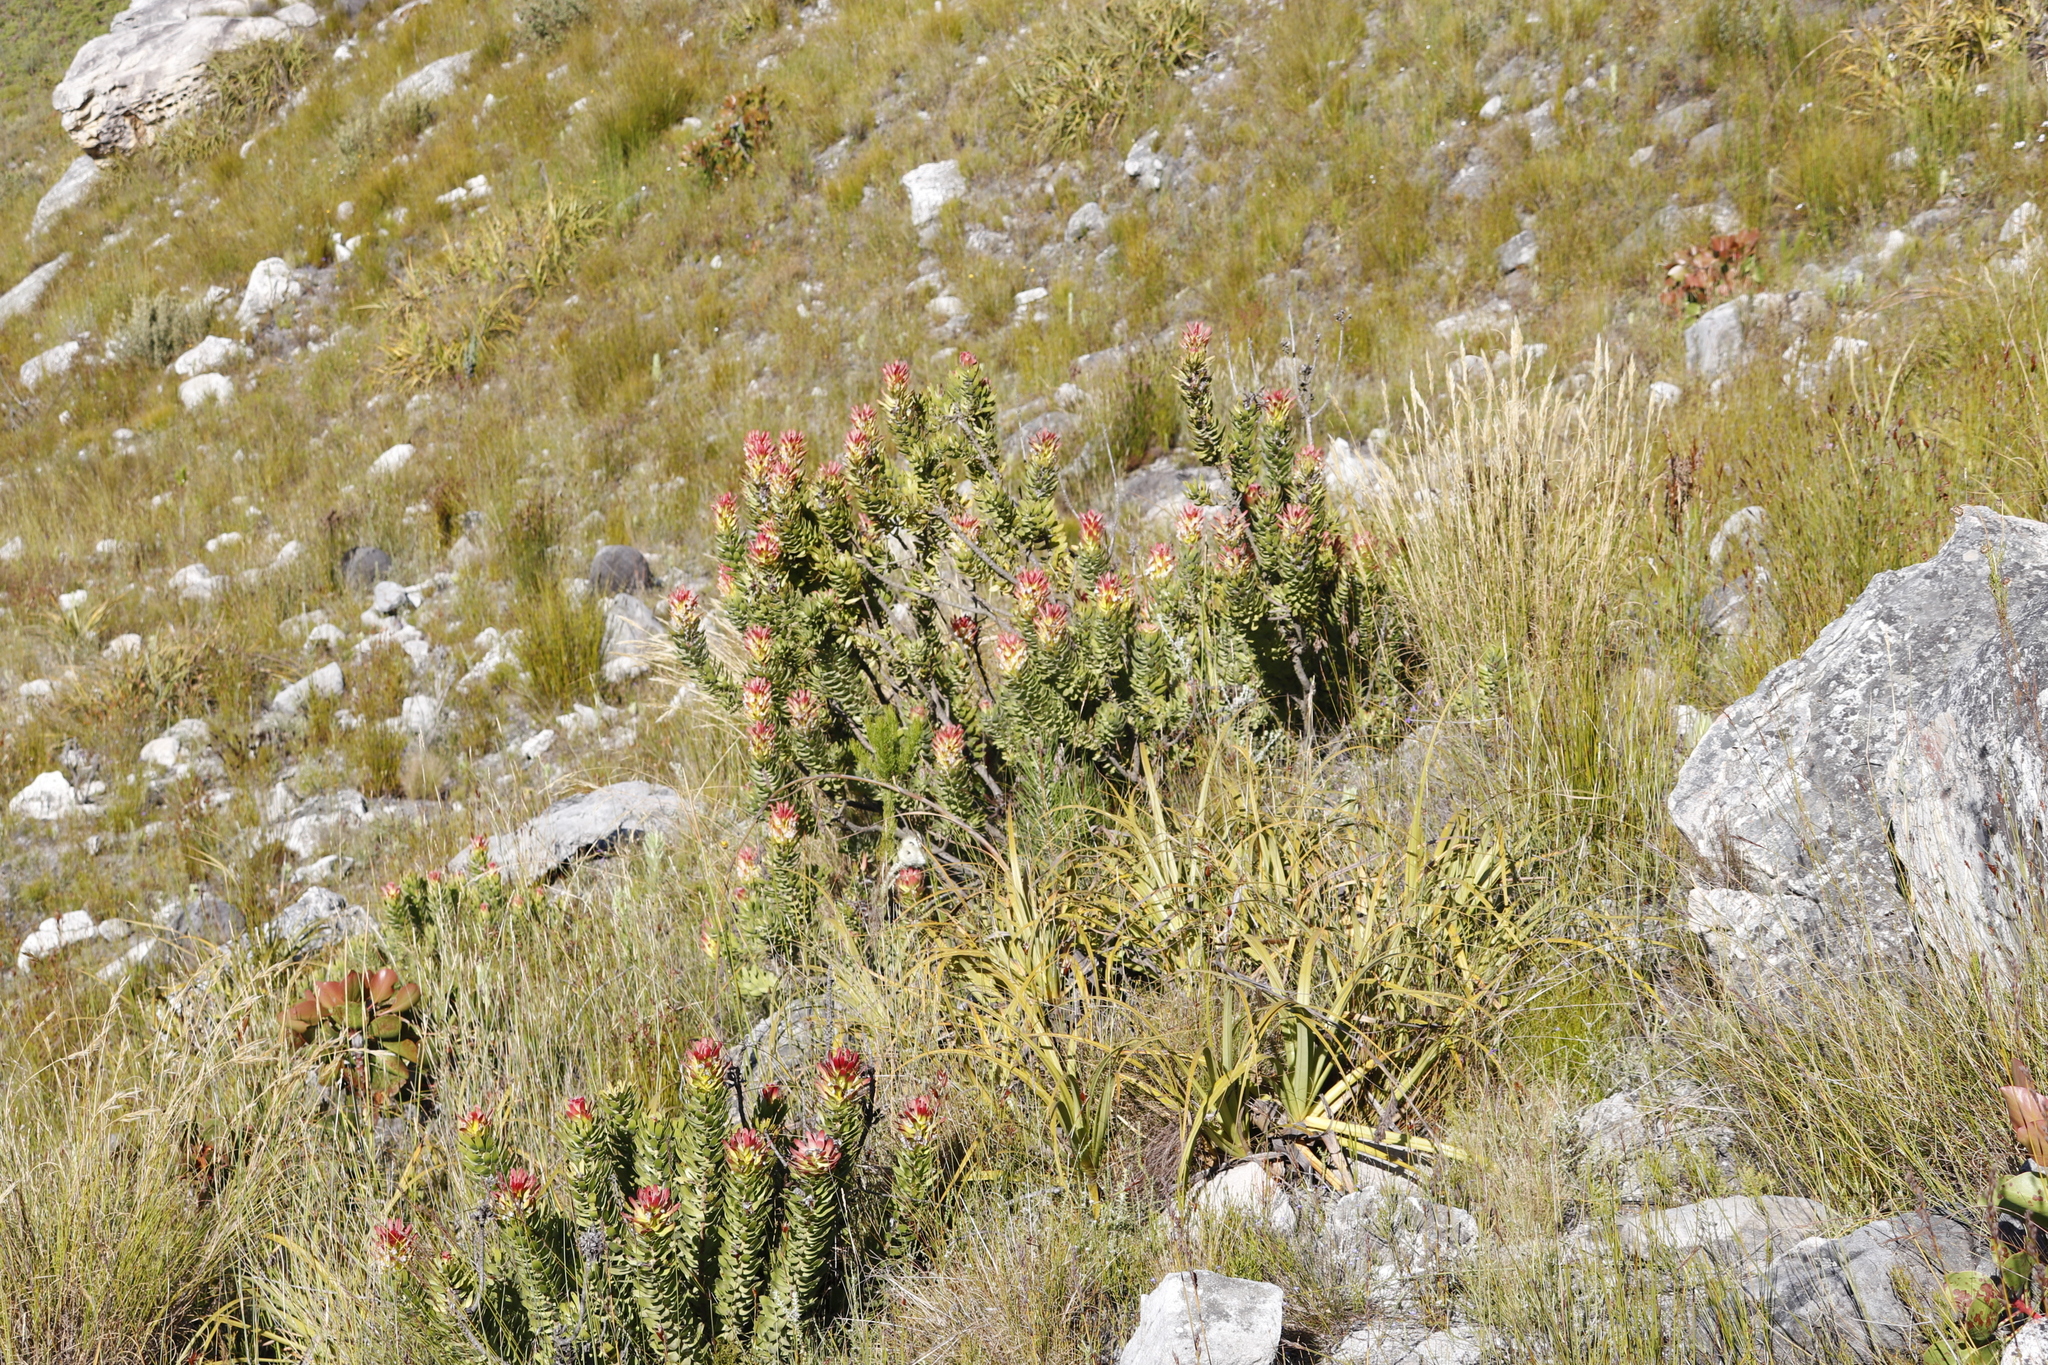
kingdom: Plantae
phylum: Tracheophyta
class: Magnoliopsida
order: Proteales
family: Proteaceae
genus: Mimetes
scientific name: Mimetes cucullatus
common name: Common pagoda
